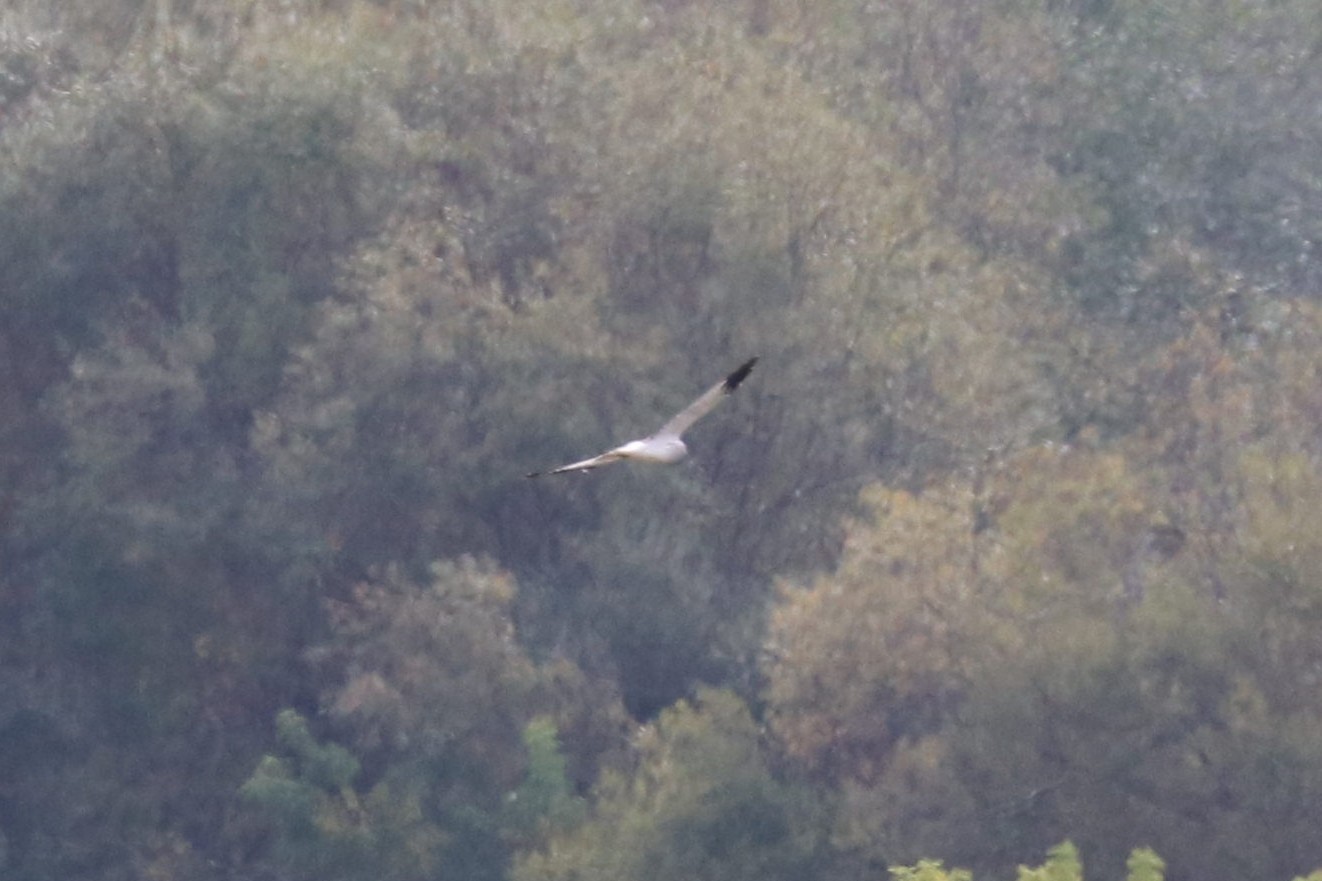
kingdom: Animalia
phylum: Chordata
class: Aves
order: Accipitriformes
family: Accipitridae
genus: Circus
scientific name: Circus cyaneus
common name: Hen harrier
